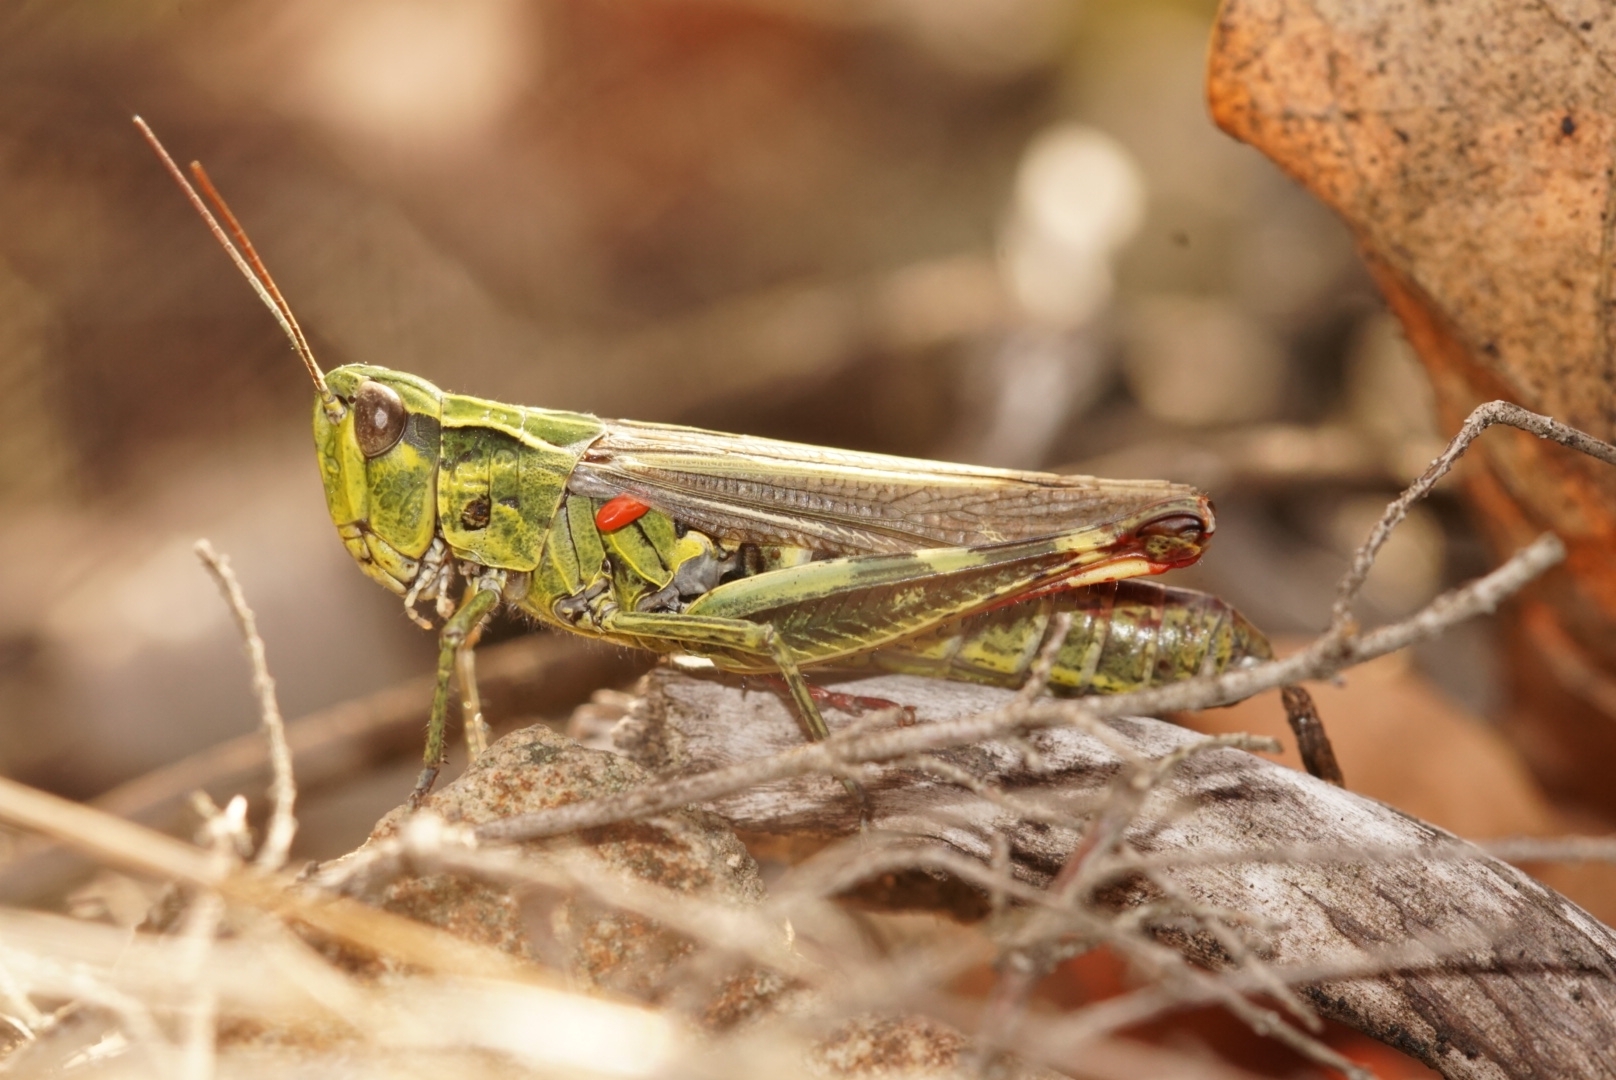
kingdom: Animalia
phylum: Arthropoda
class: Insecta
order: Orthoptera
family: Acrididae
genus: Chorthippus
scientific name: Chorthippus binotatus
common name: Two-marked grasshopper
